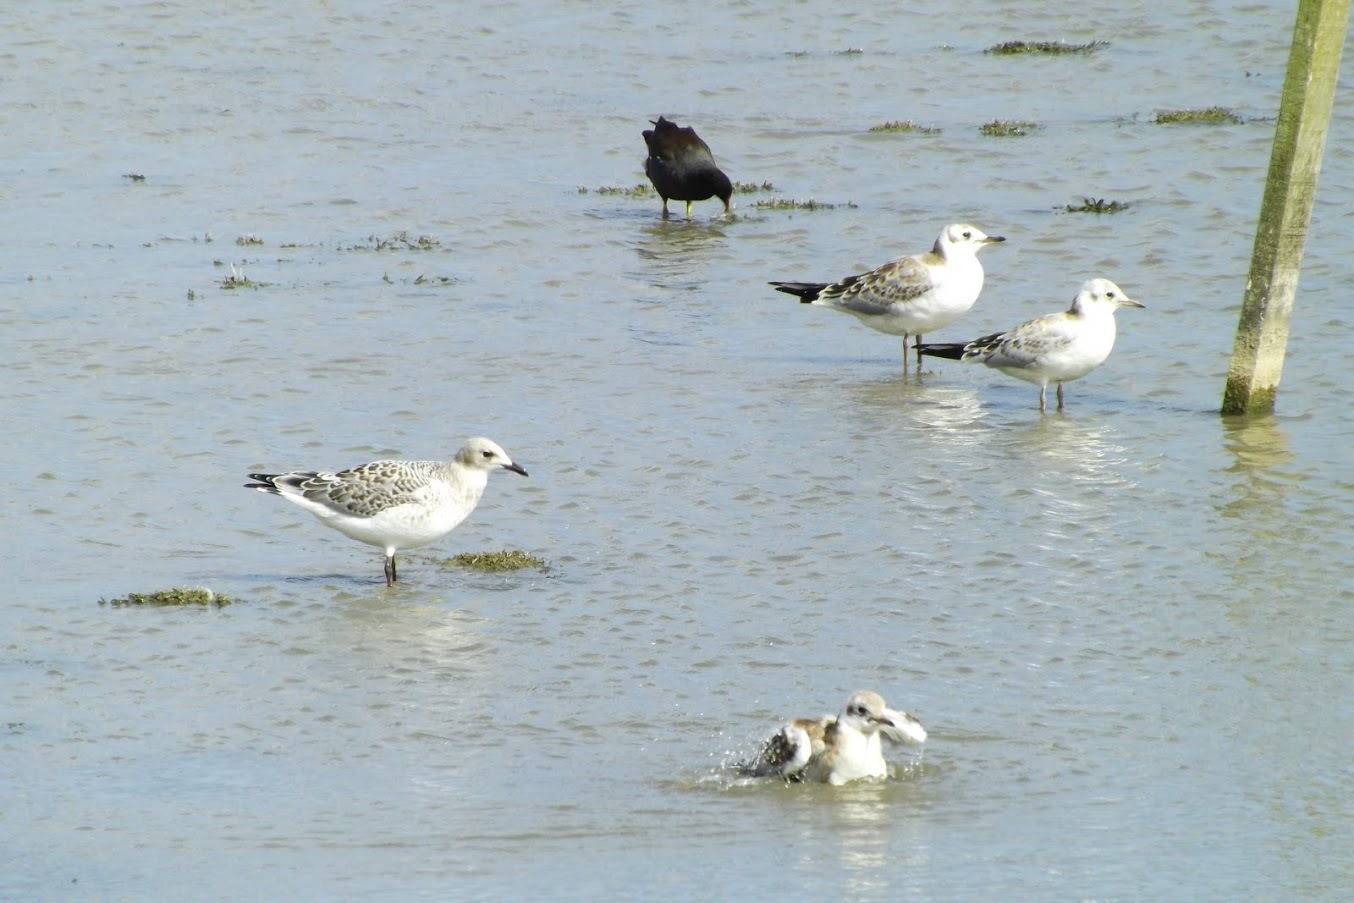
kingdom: Animalia
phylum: Chordata
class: Aves
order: Charadriiformes
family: Laridae
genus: Chroicocephalus
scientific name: Chroicocephalus ridibundus
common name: Black-headed gull
